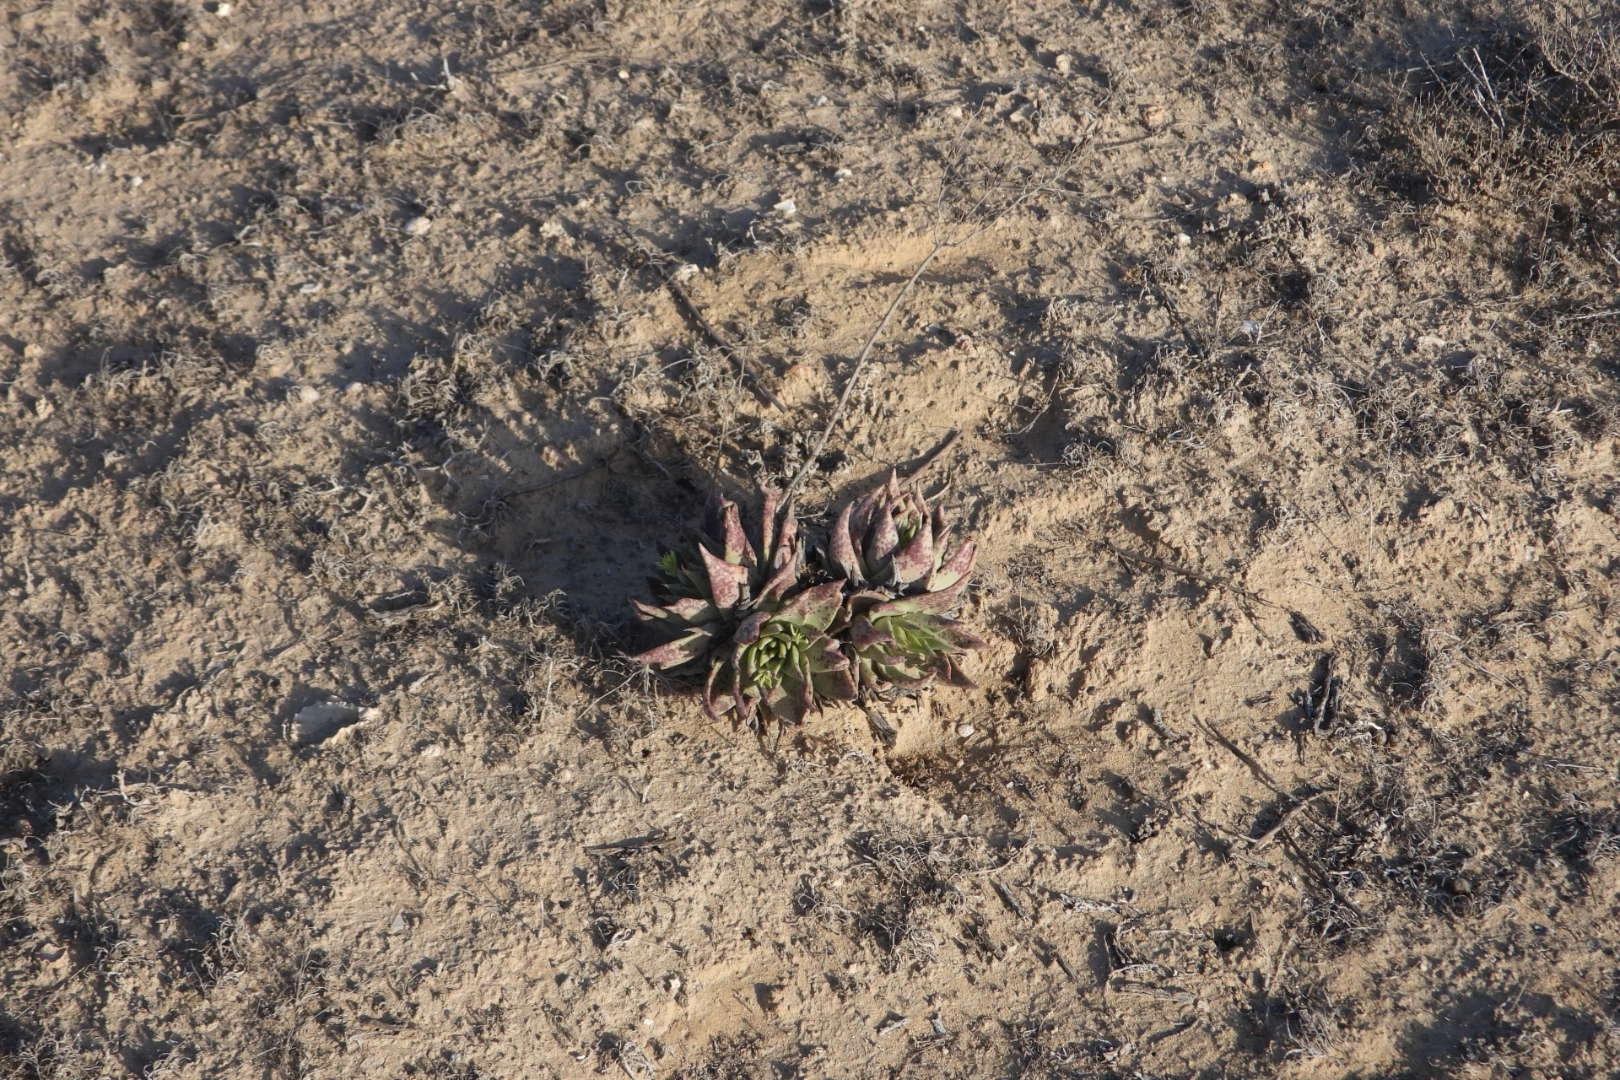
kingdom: Plantae
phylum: Tracheophyta
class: Magnoliopsida
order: Saxifragales
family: Crassulaceae
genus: Dudleya
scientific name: Dudleya acuminata
